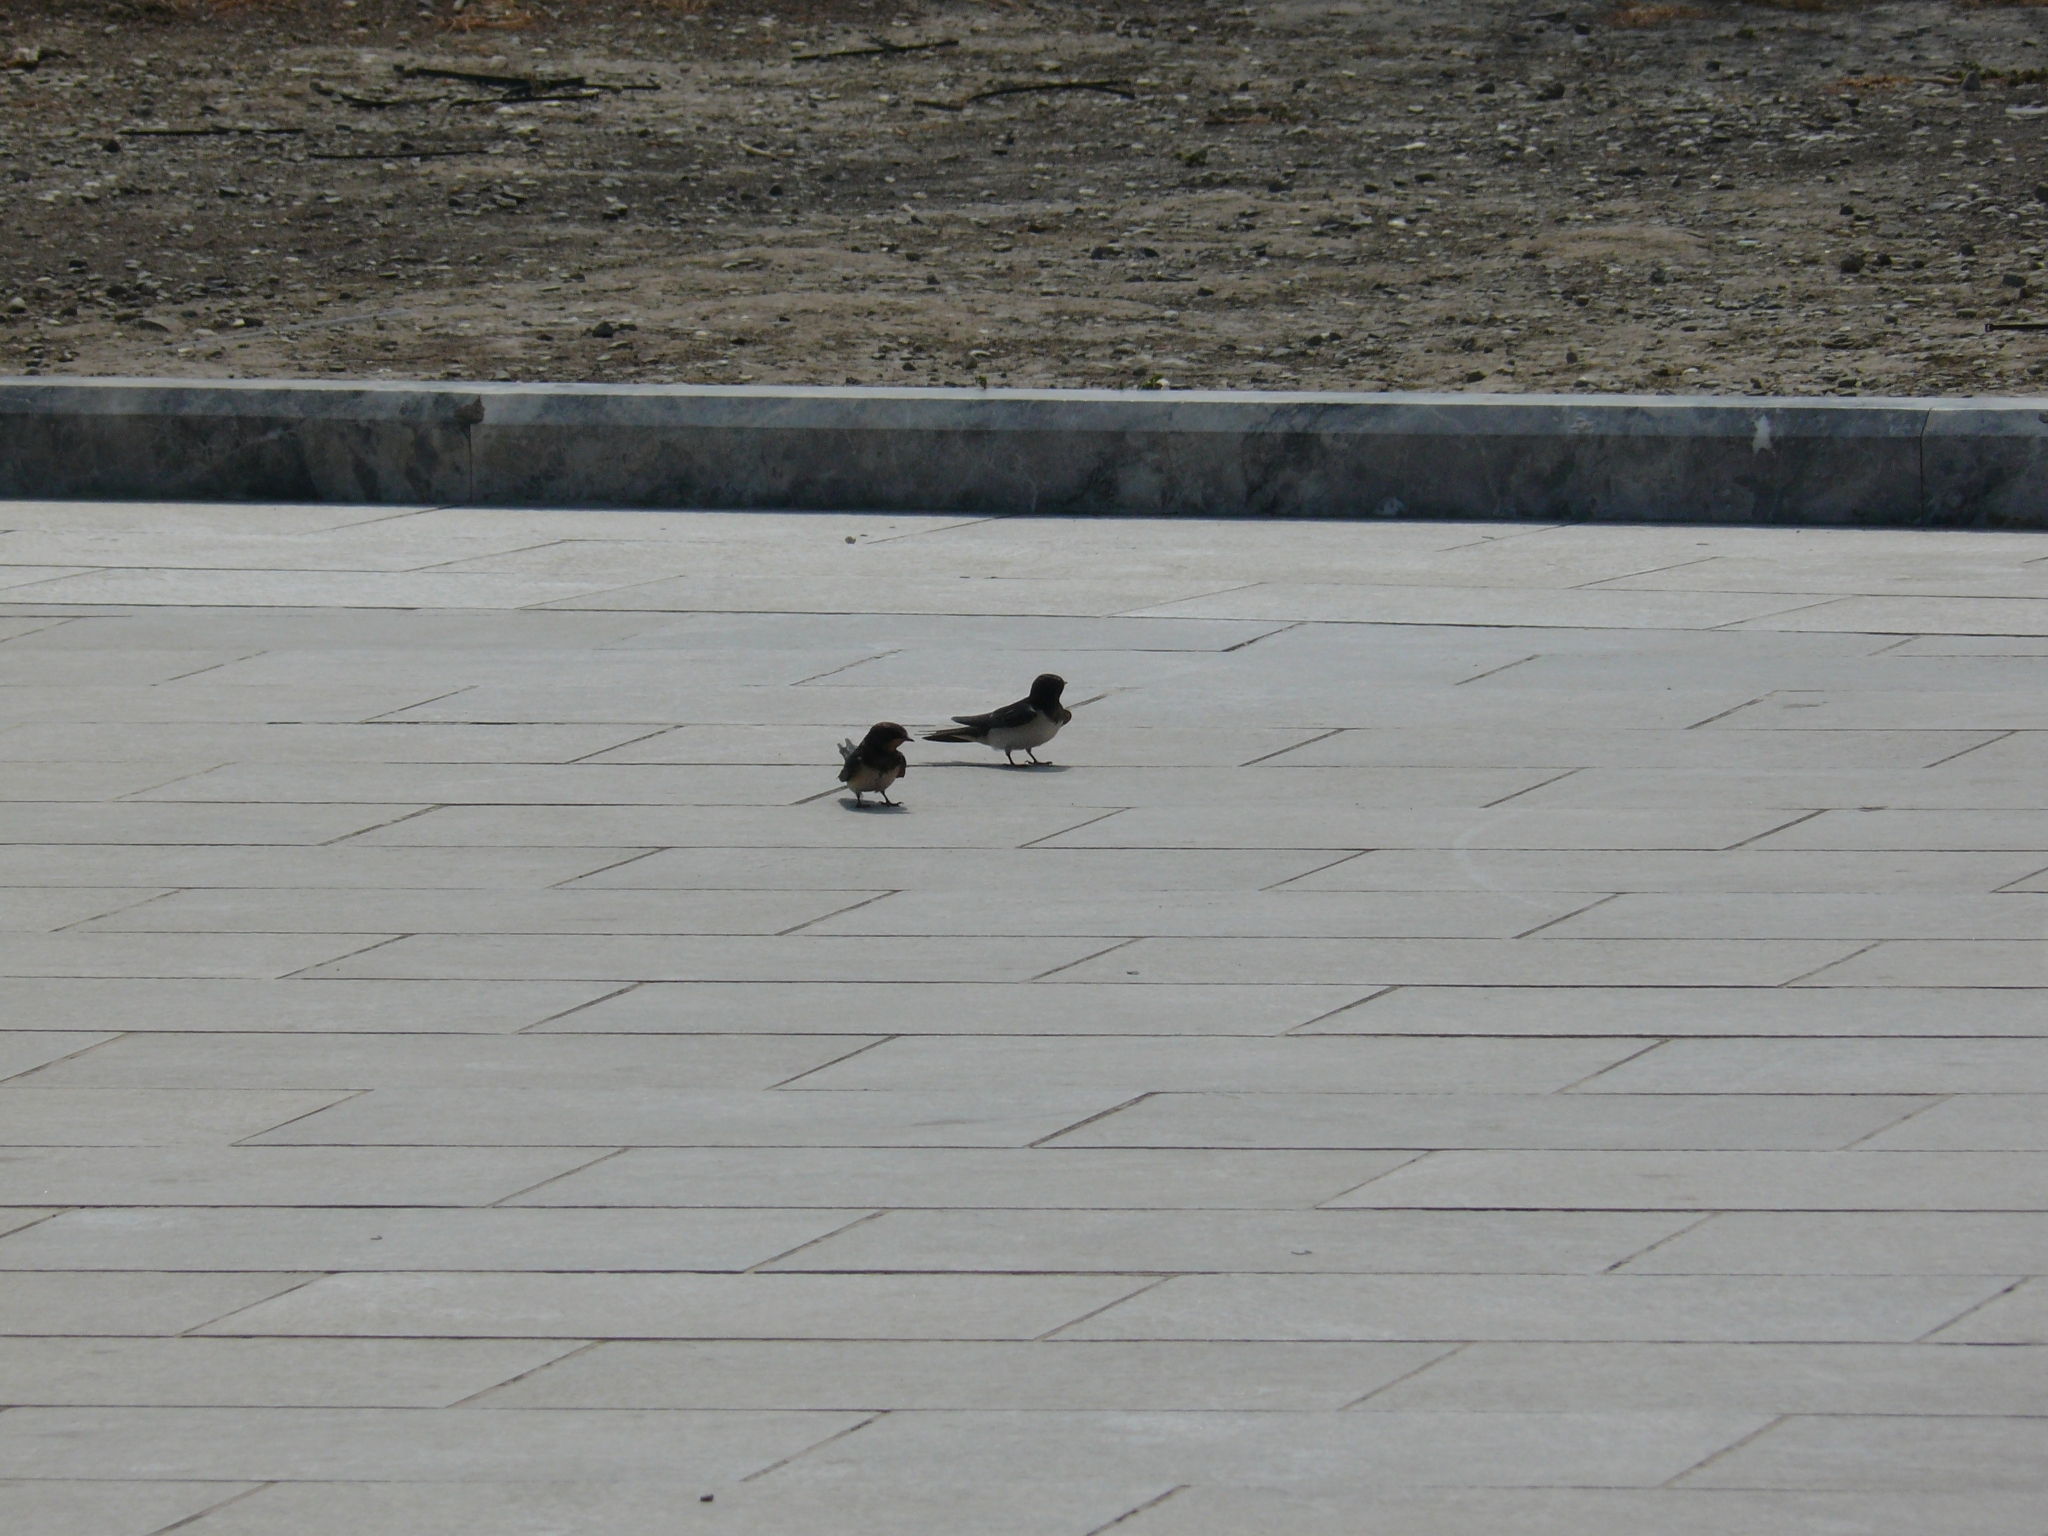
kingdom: Animalia
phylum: Chordata
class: Aves
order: Passeriformes
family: Hirundinidae
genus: Hirundo
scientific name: Hirundo rustica
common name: Barn swallow
